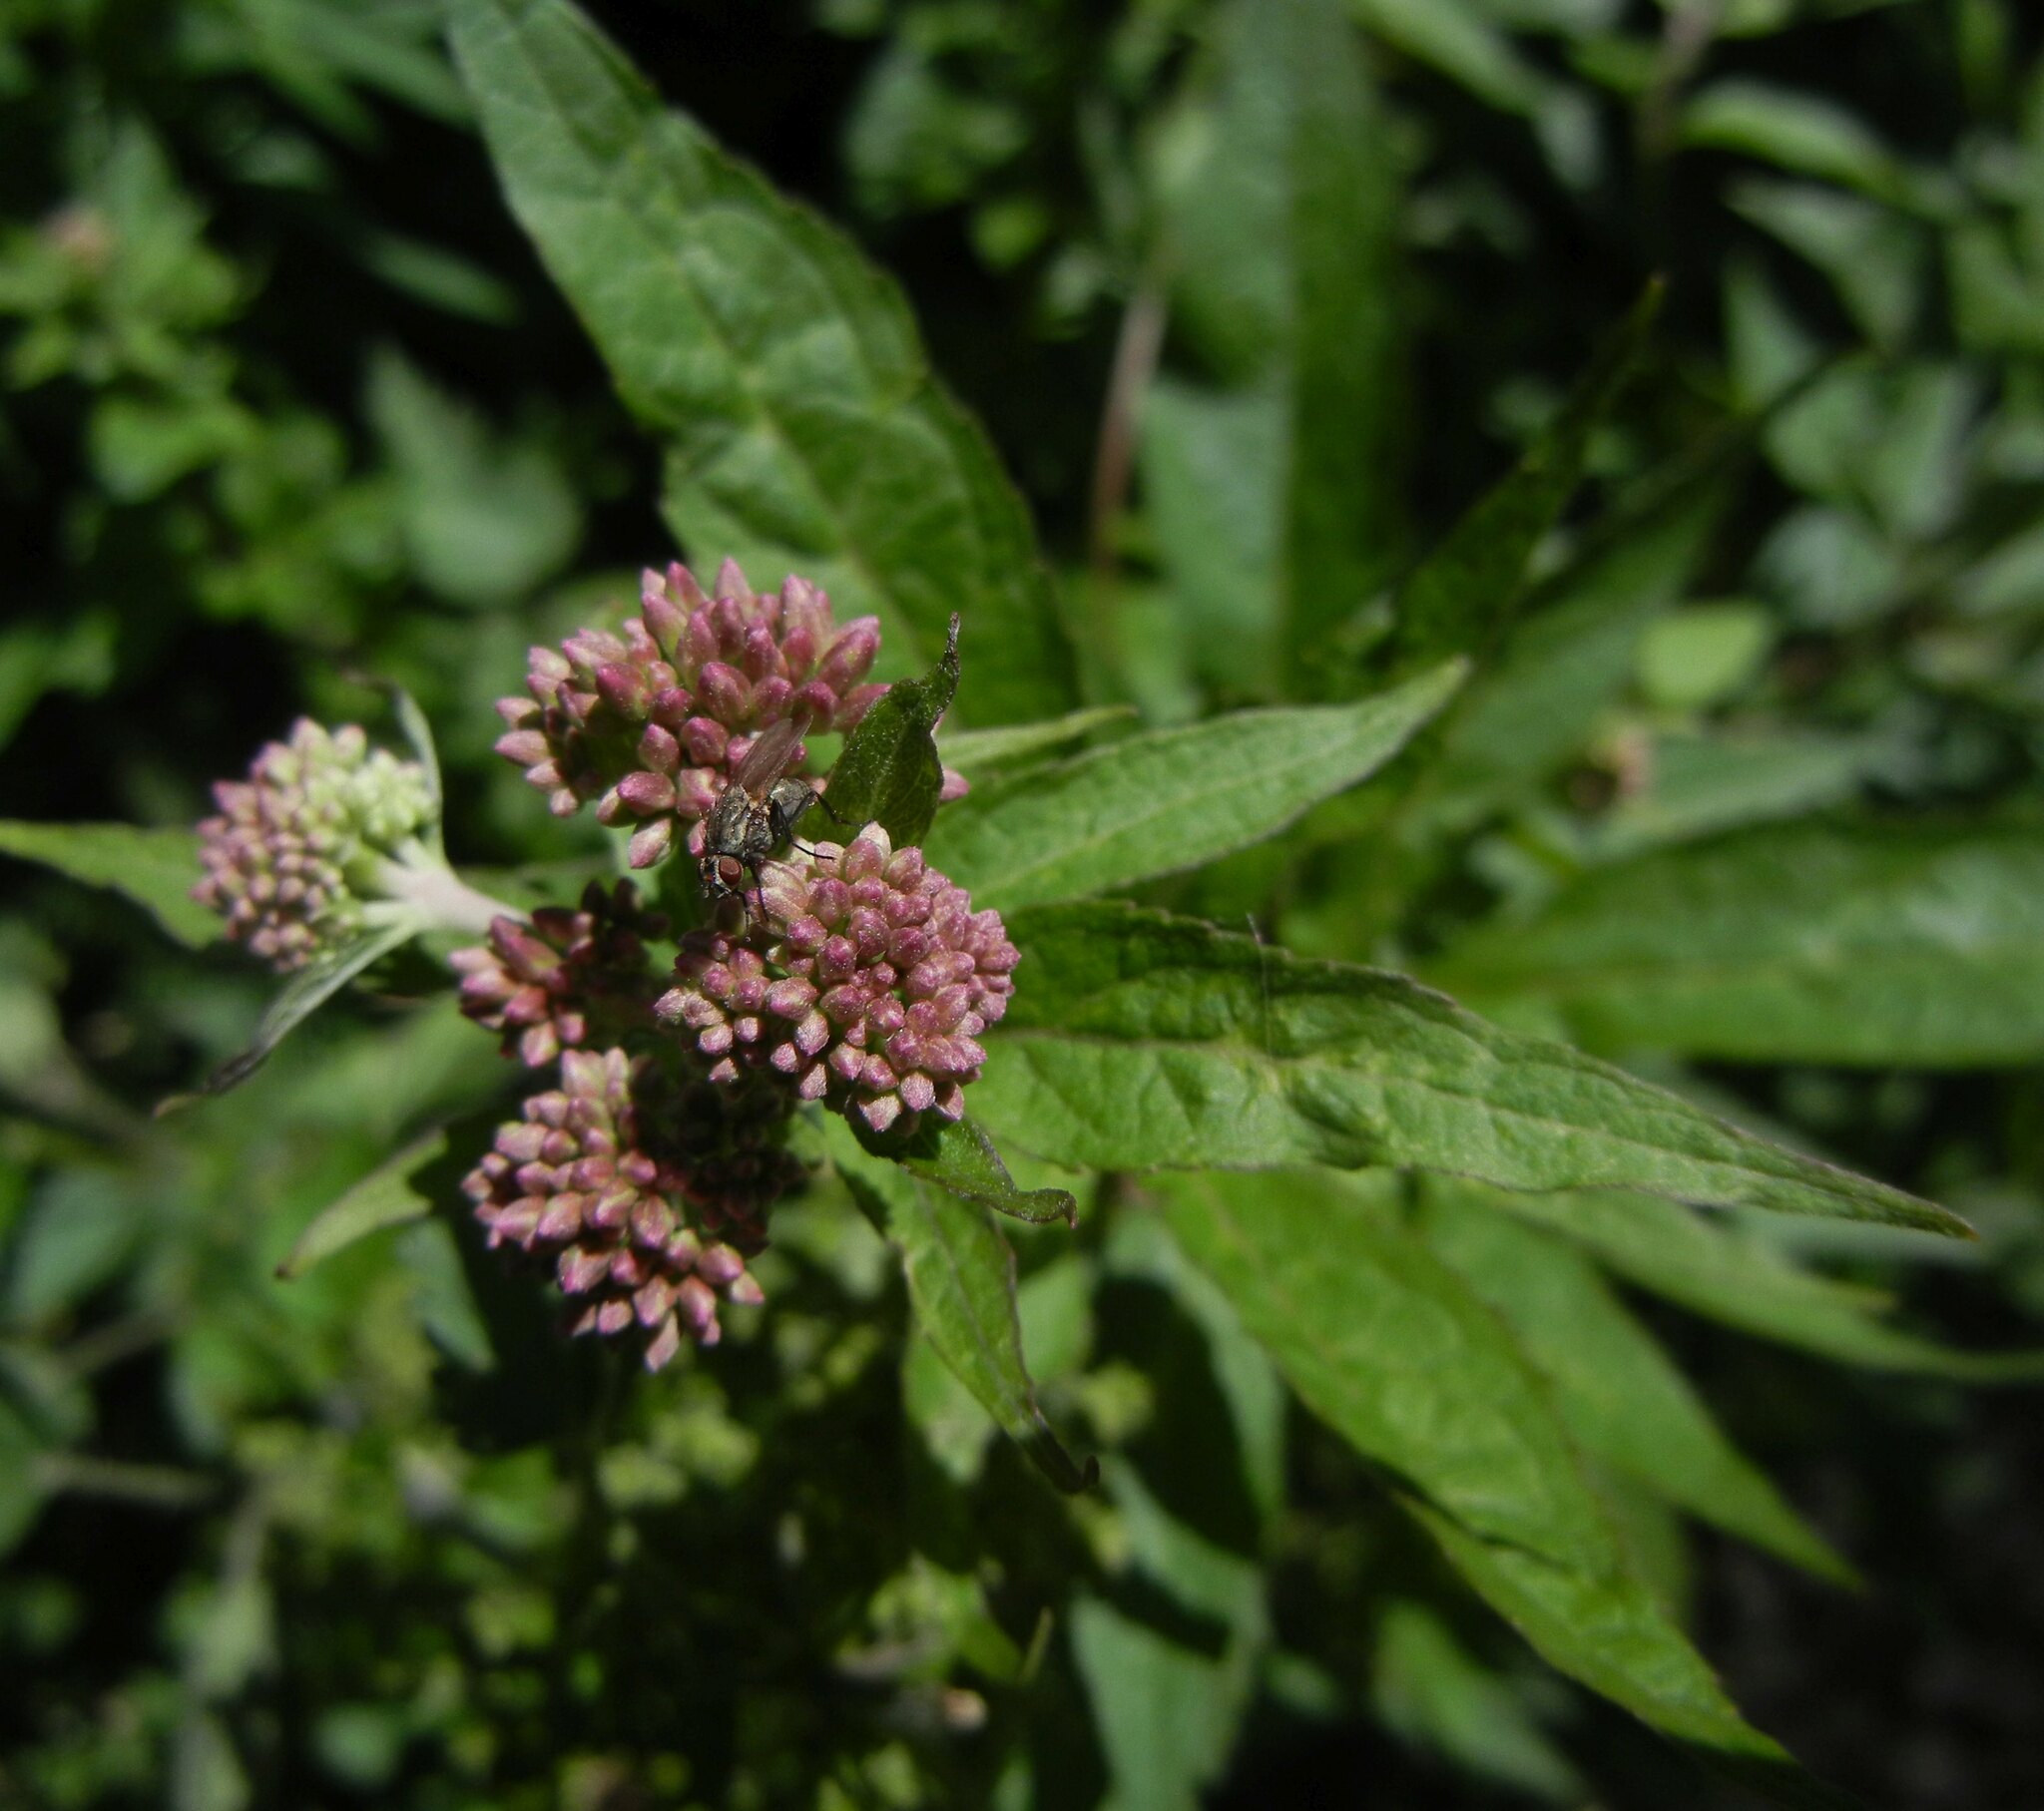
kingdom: Plantae
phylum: Tracheophyta
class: Magnoliopsida
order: Asterales
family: Asteraceae
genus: Eupatorium
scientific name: Eupatorium cannabinum
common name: Hemp-agrimony
